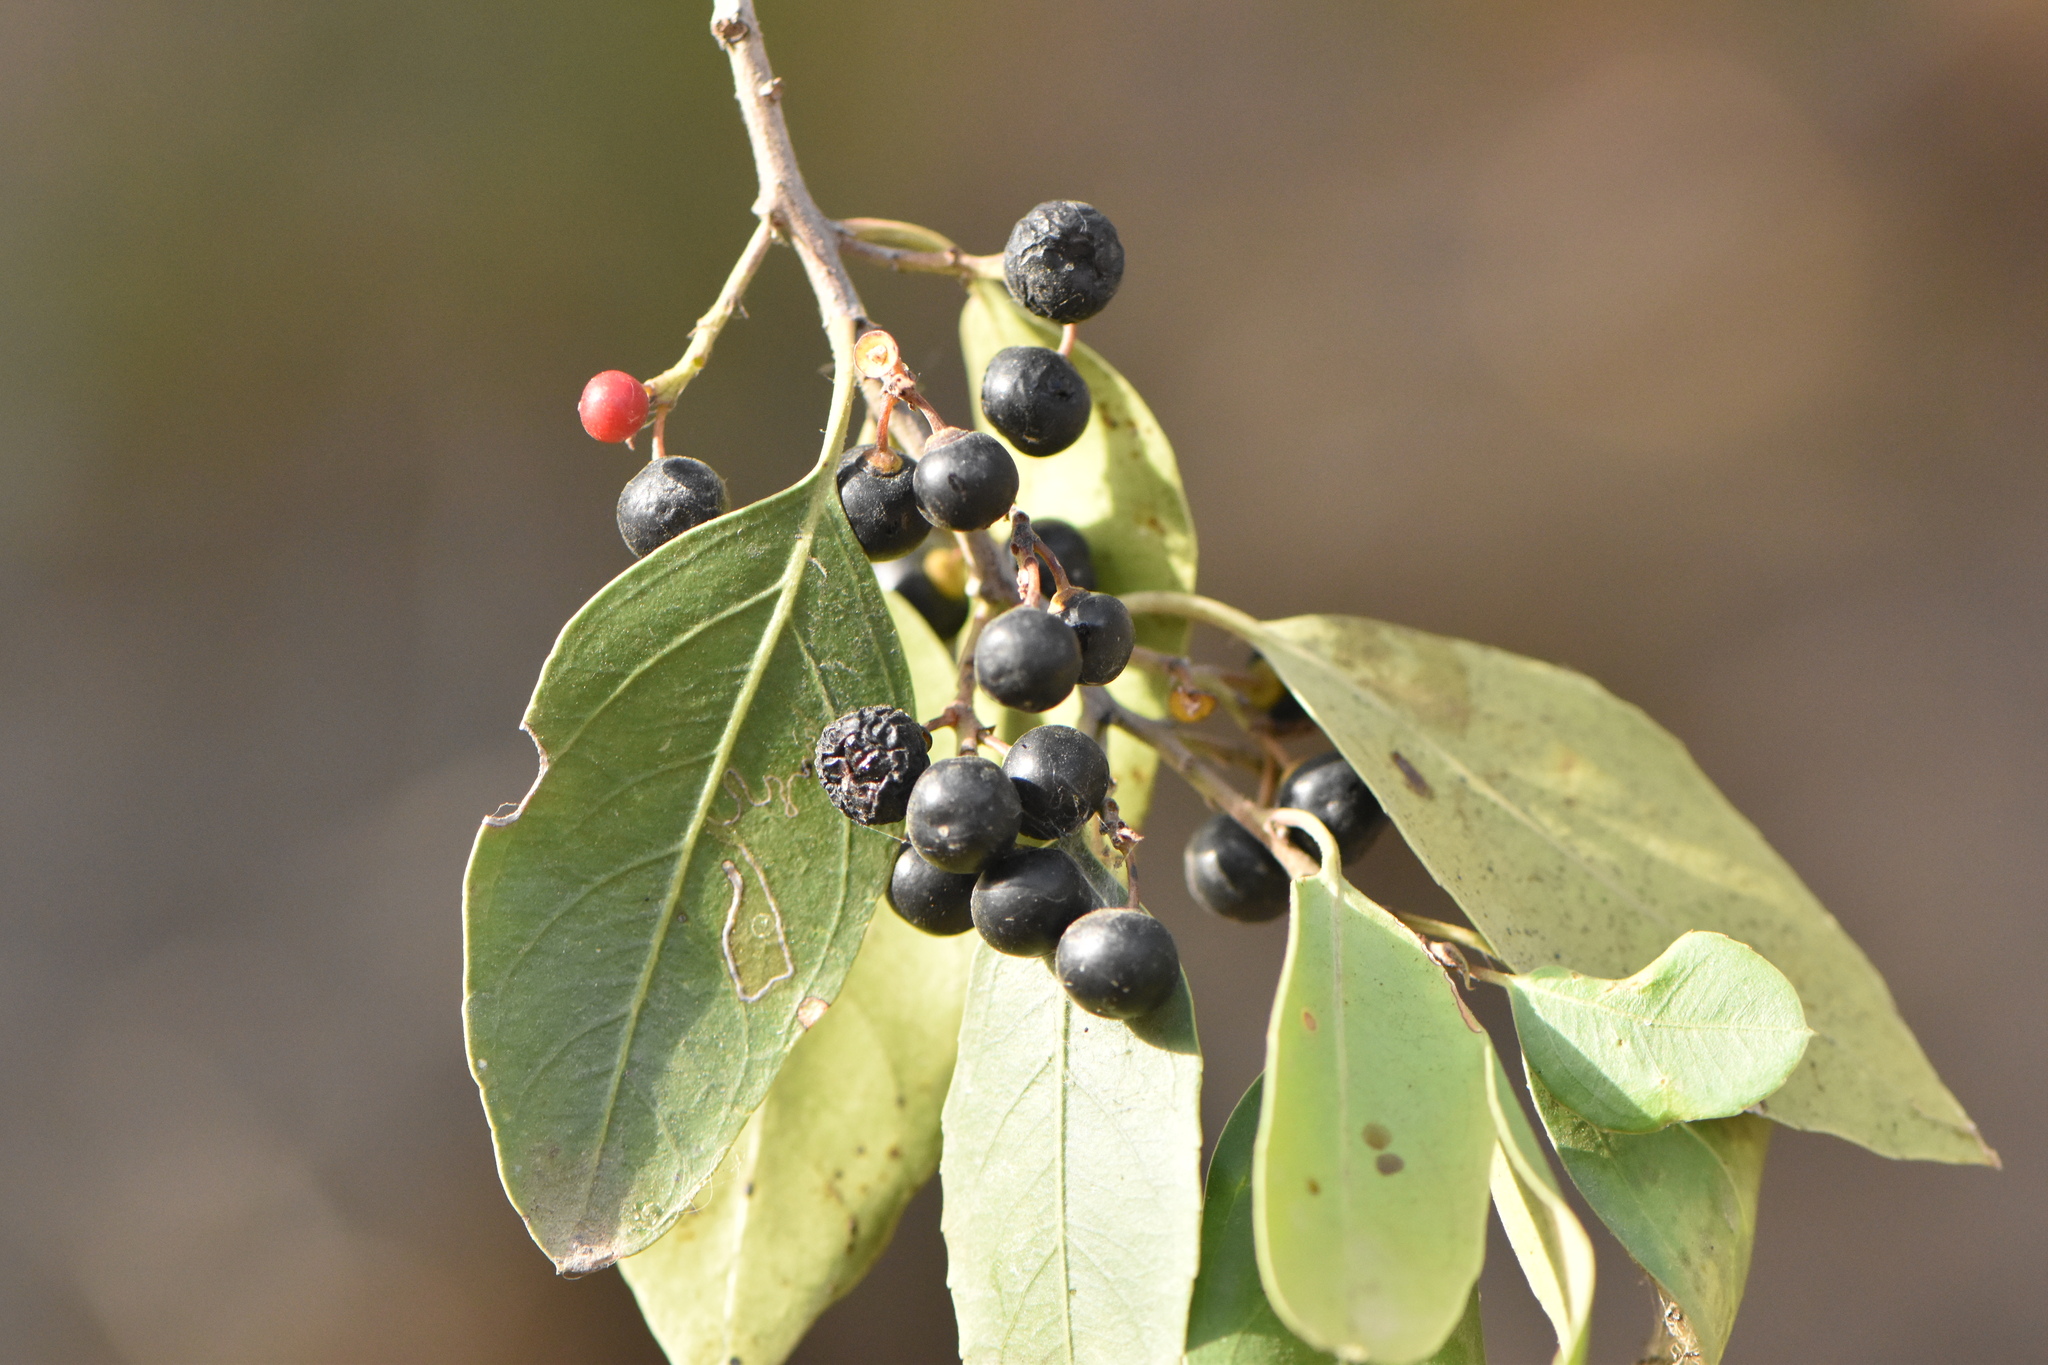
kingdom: Plantae
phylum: Tracheophyta
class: Magnoliopsida
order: Rosales
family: Rhamnaceae
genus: Rhamnus
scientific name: Rhamnus alaternus
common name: Mediterranean buckthorn
